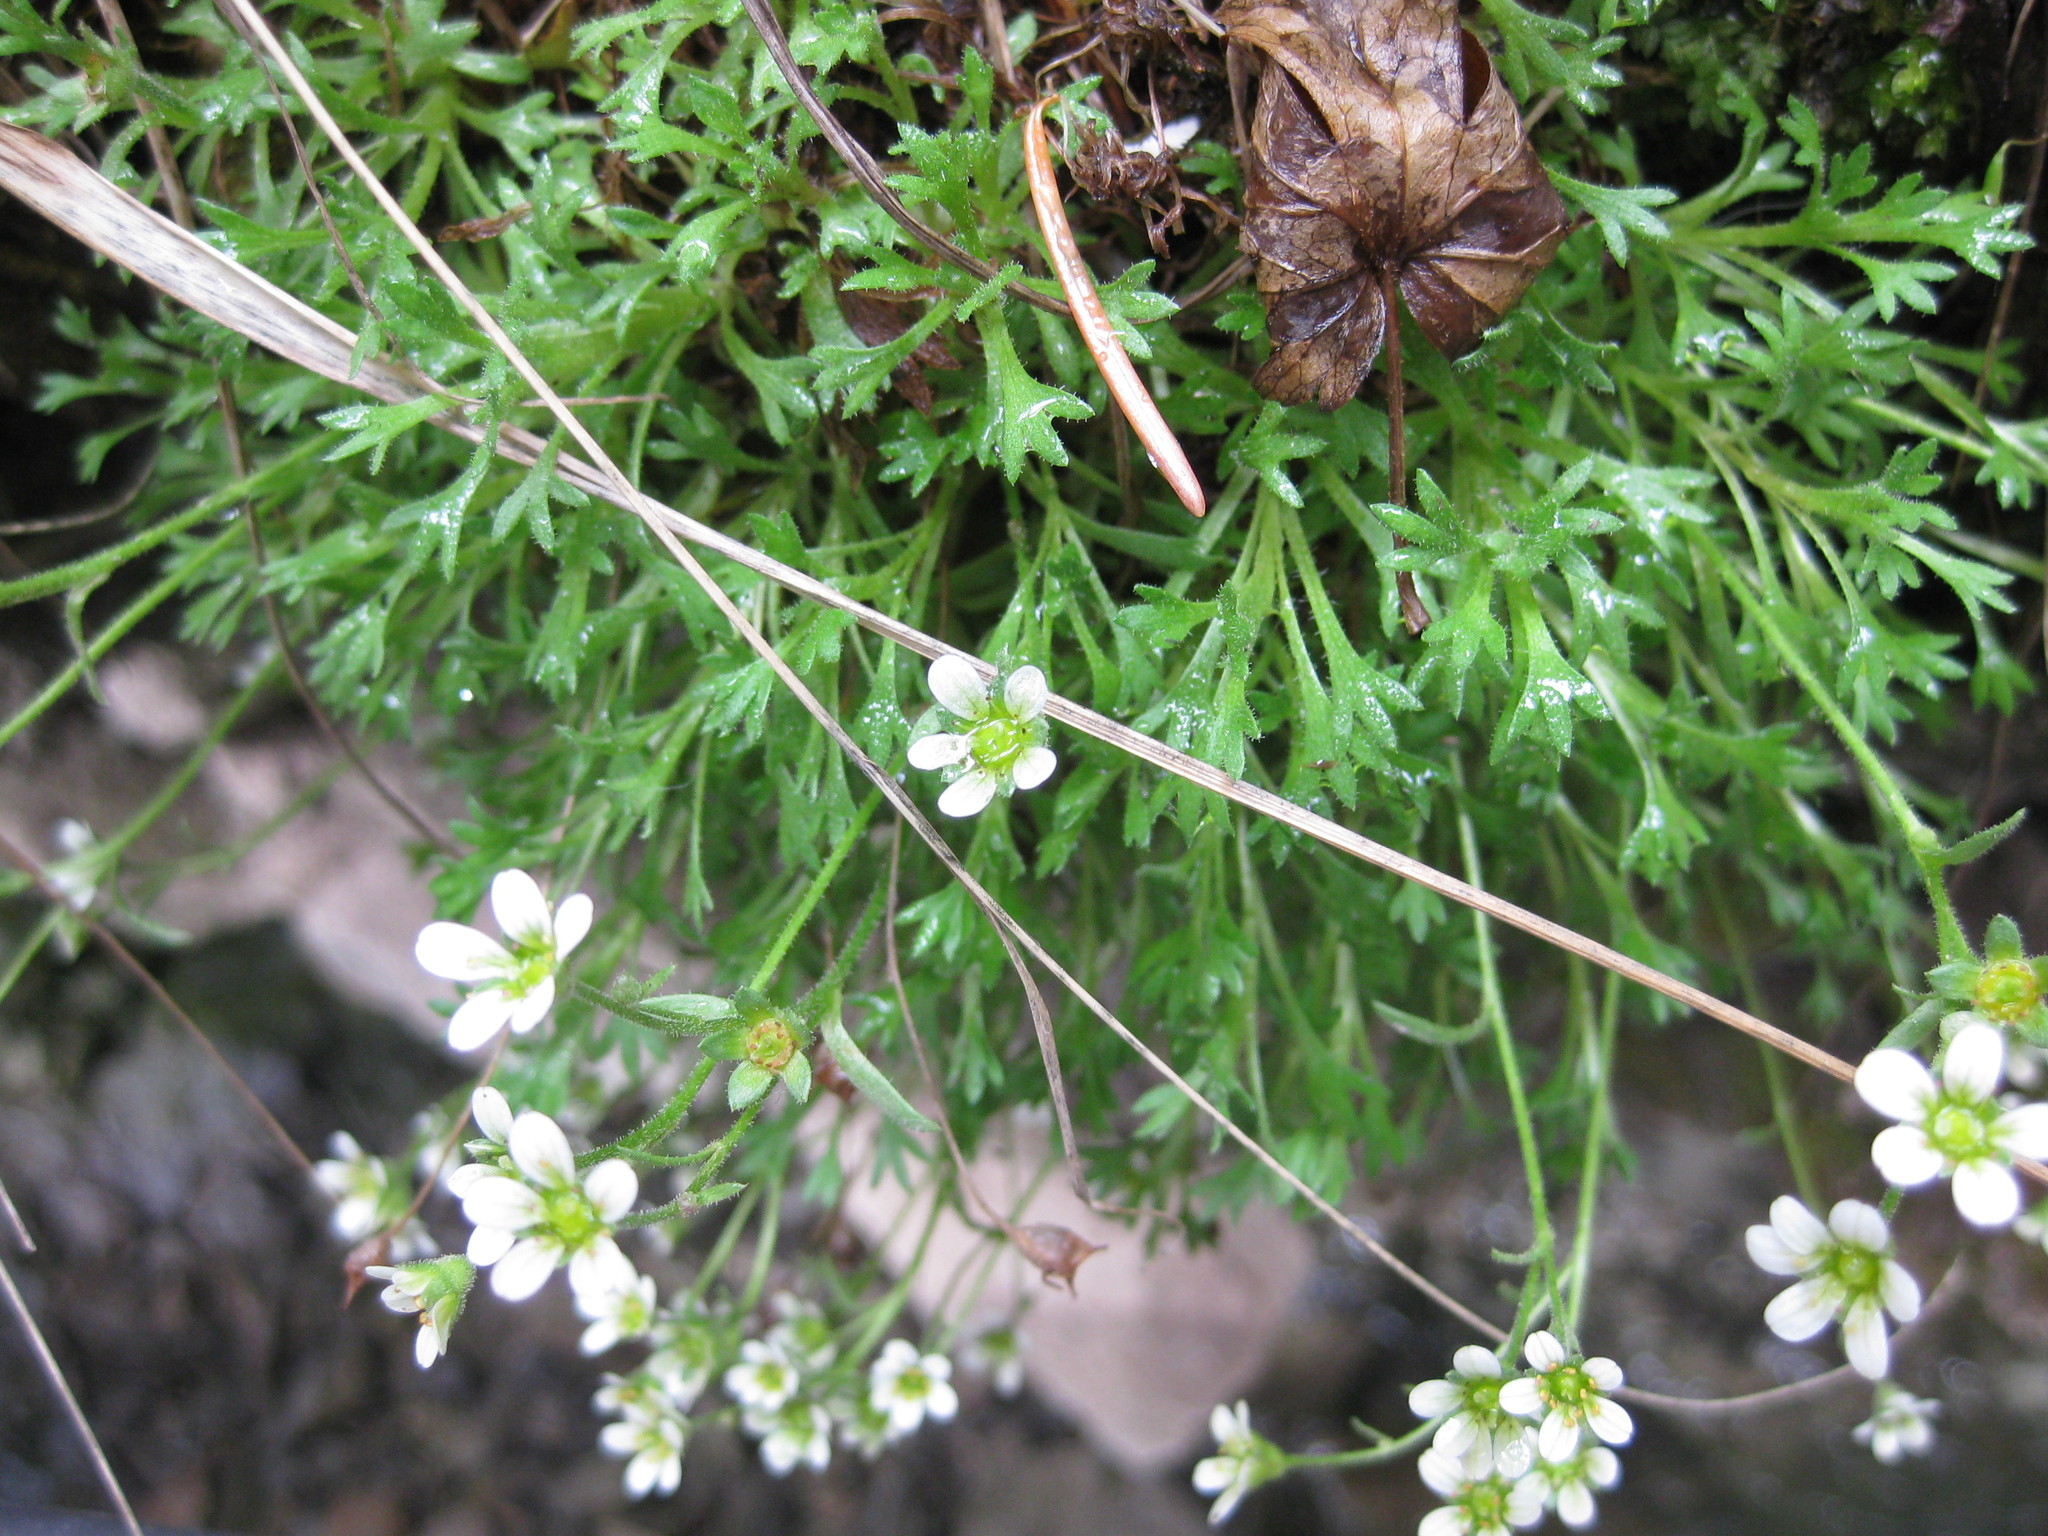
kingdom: Plantae
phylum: Tracheophyta
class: Magnoliopsida
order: Saxifragales
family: Saxifragaceae
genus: Saxifraga
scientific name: Saxifraga cespitosa
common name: Tufted saxifrage
